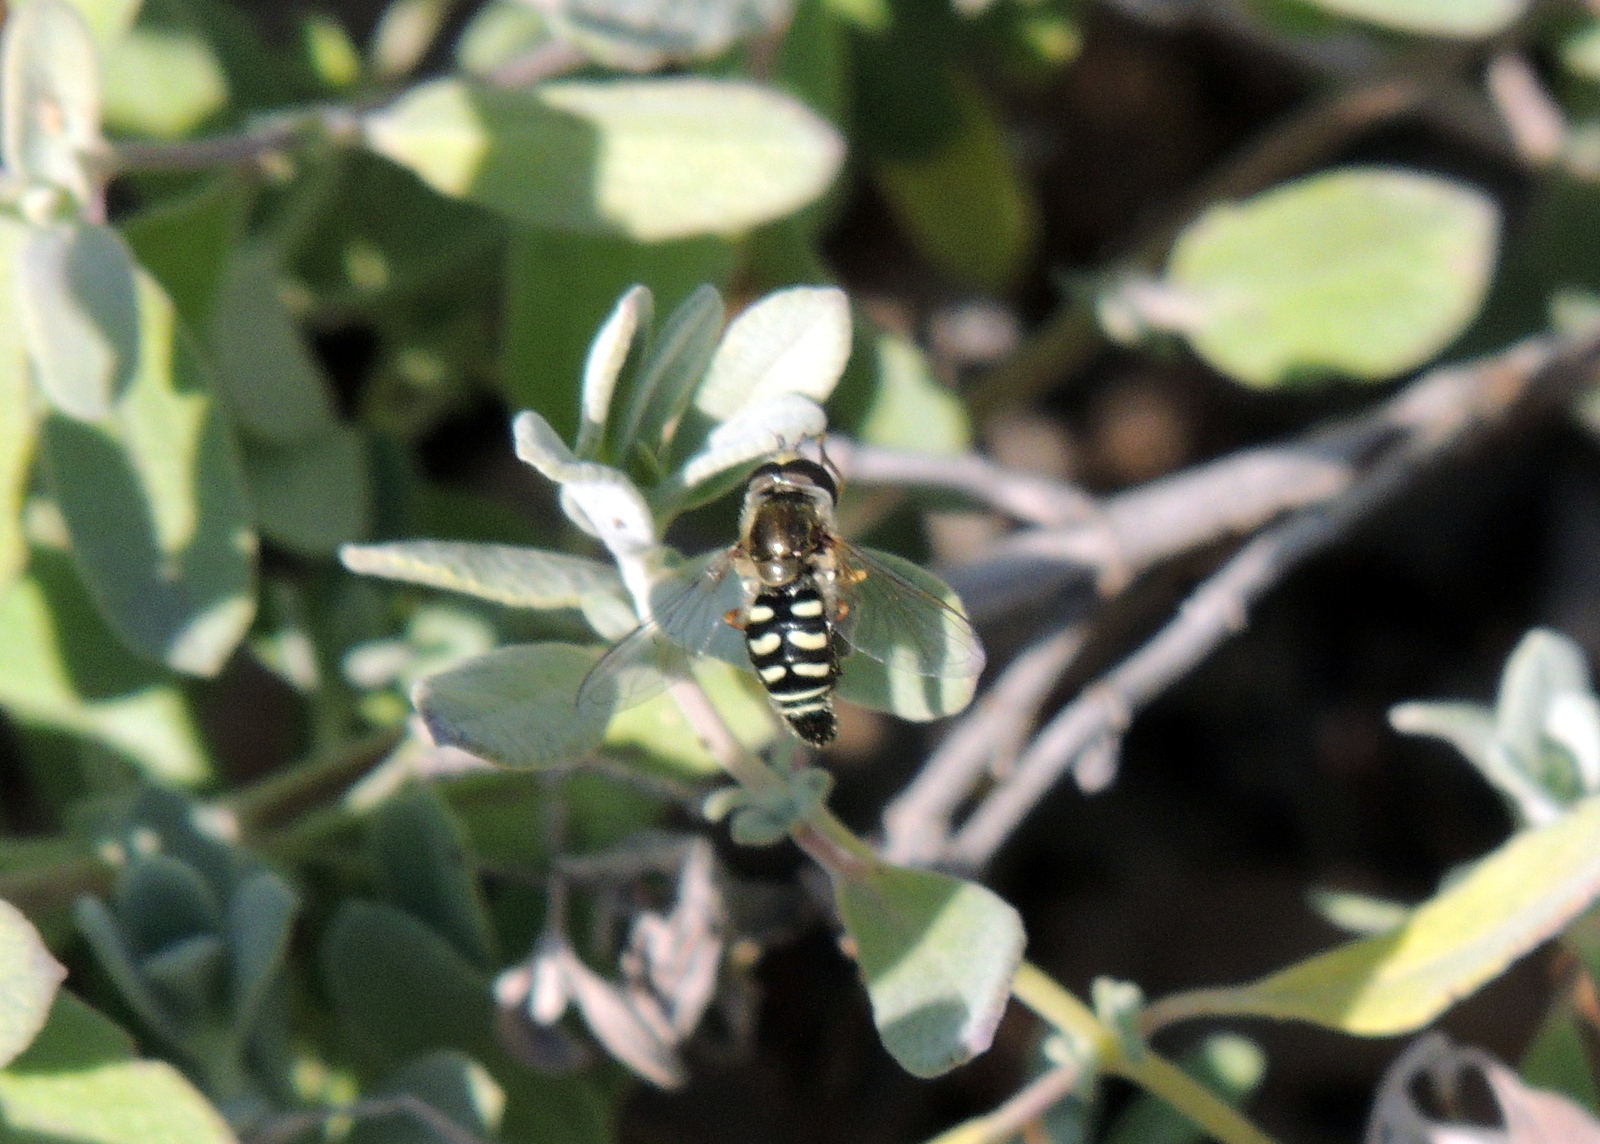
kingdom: Animalia
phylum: Arthropoda
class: Insecta
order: Diptera
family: Syrphidae
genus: Eupeodes
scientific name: Eupeodes volucris
